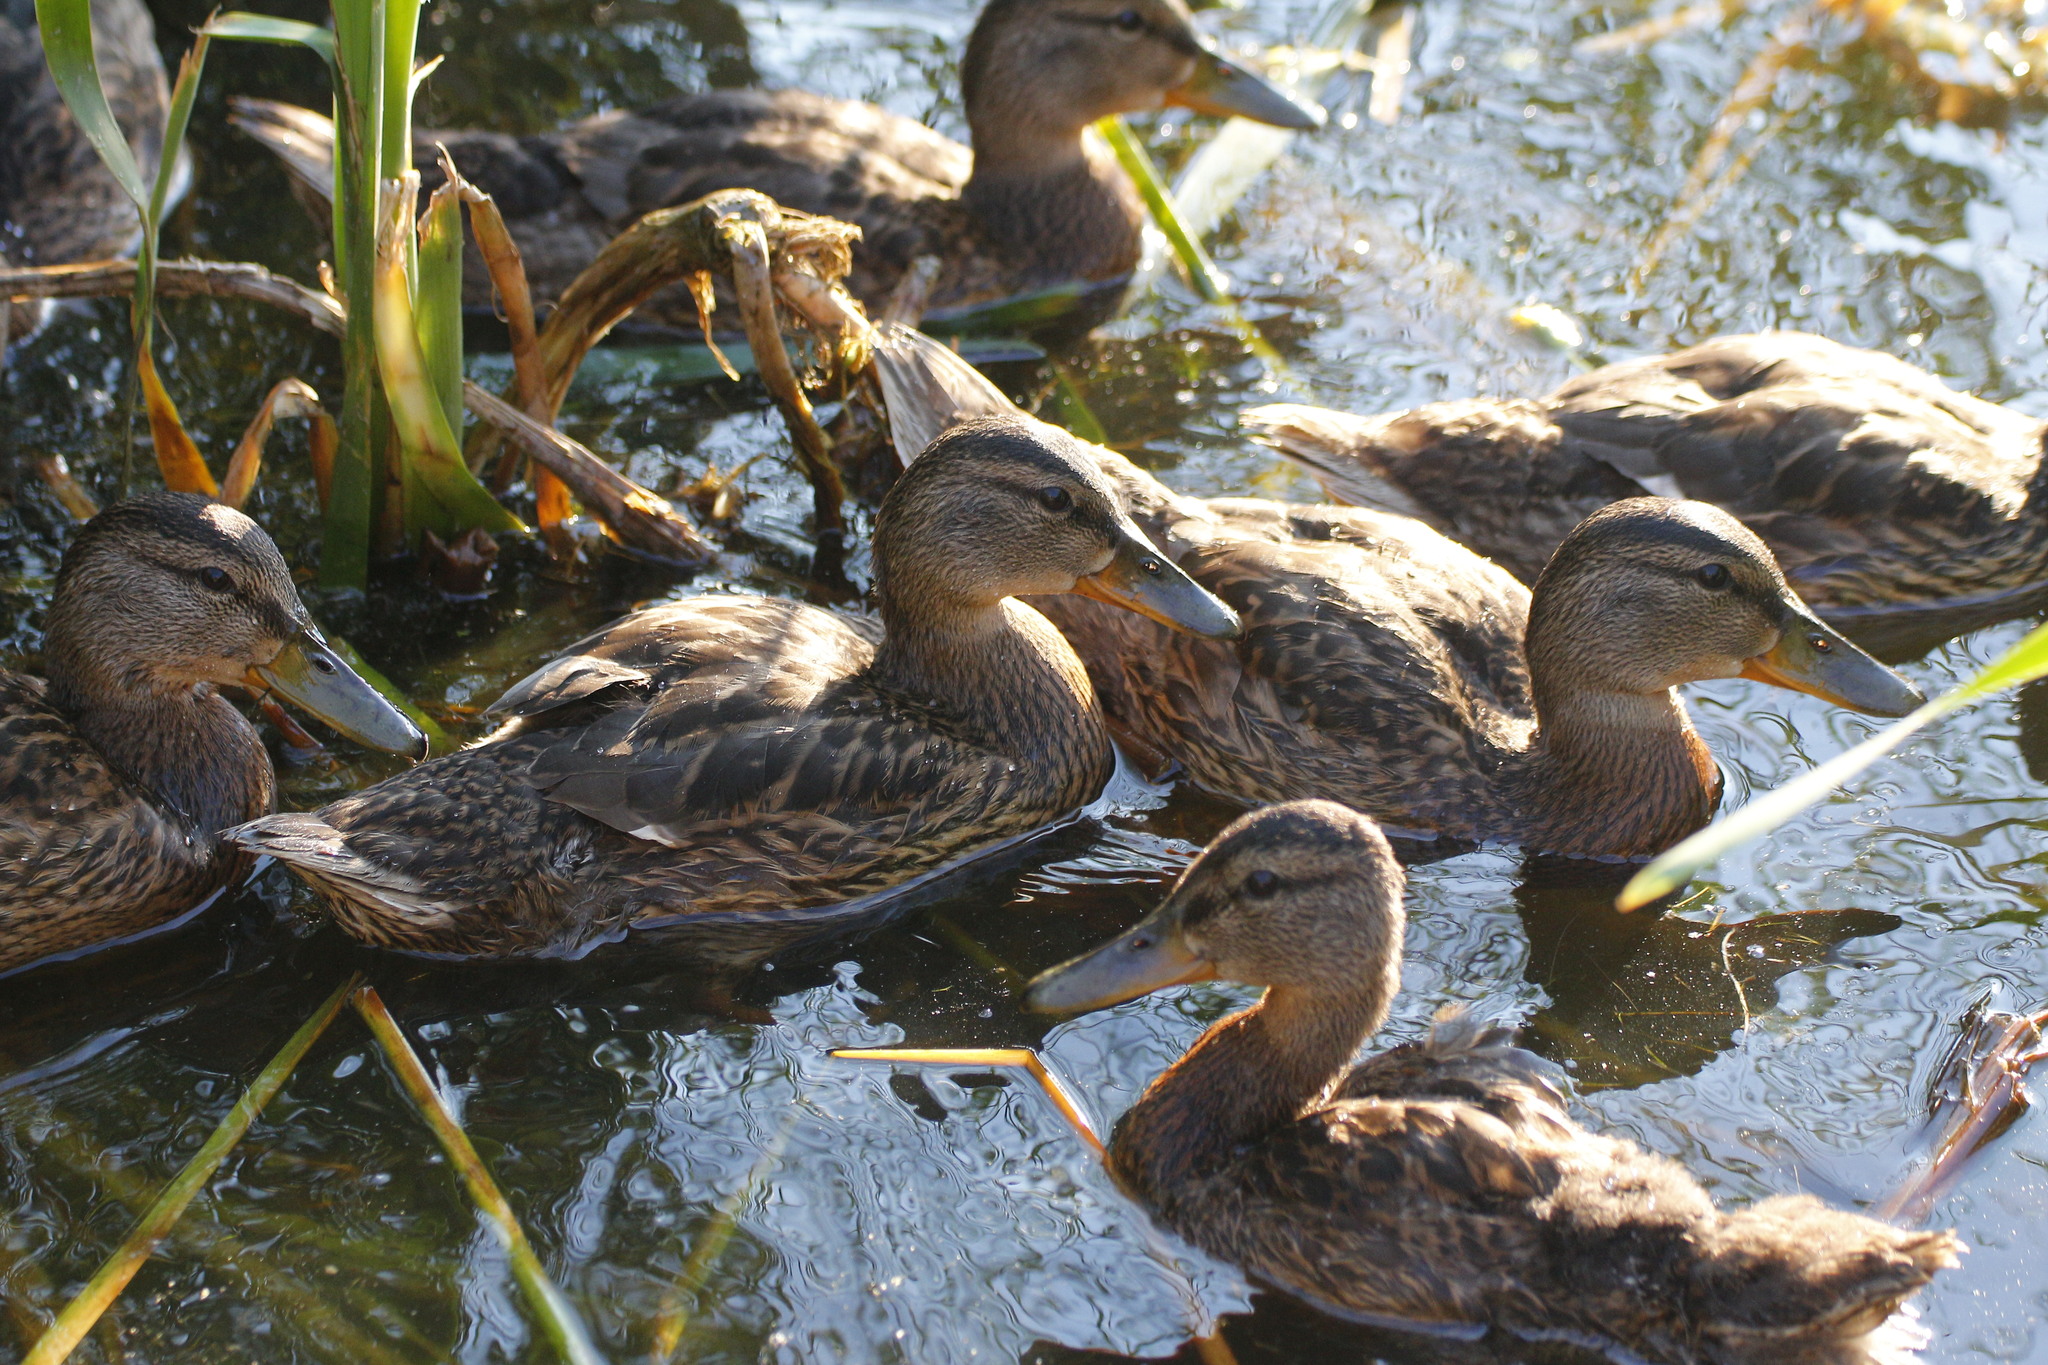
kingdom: Animalia
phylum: Chordata
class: Aves
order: Anseriformes
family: Anatidae
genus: Anas
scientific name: Anas platyrhynchos
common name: Mallard
